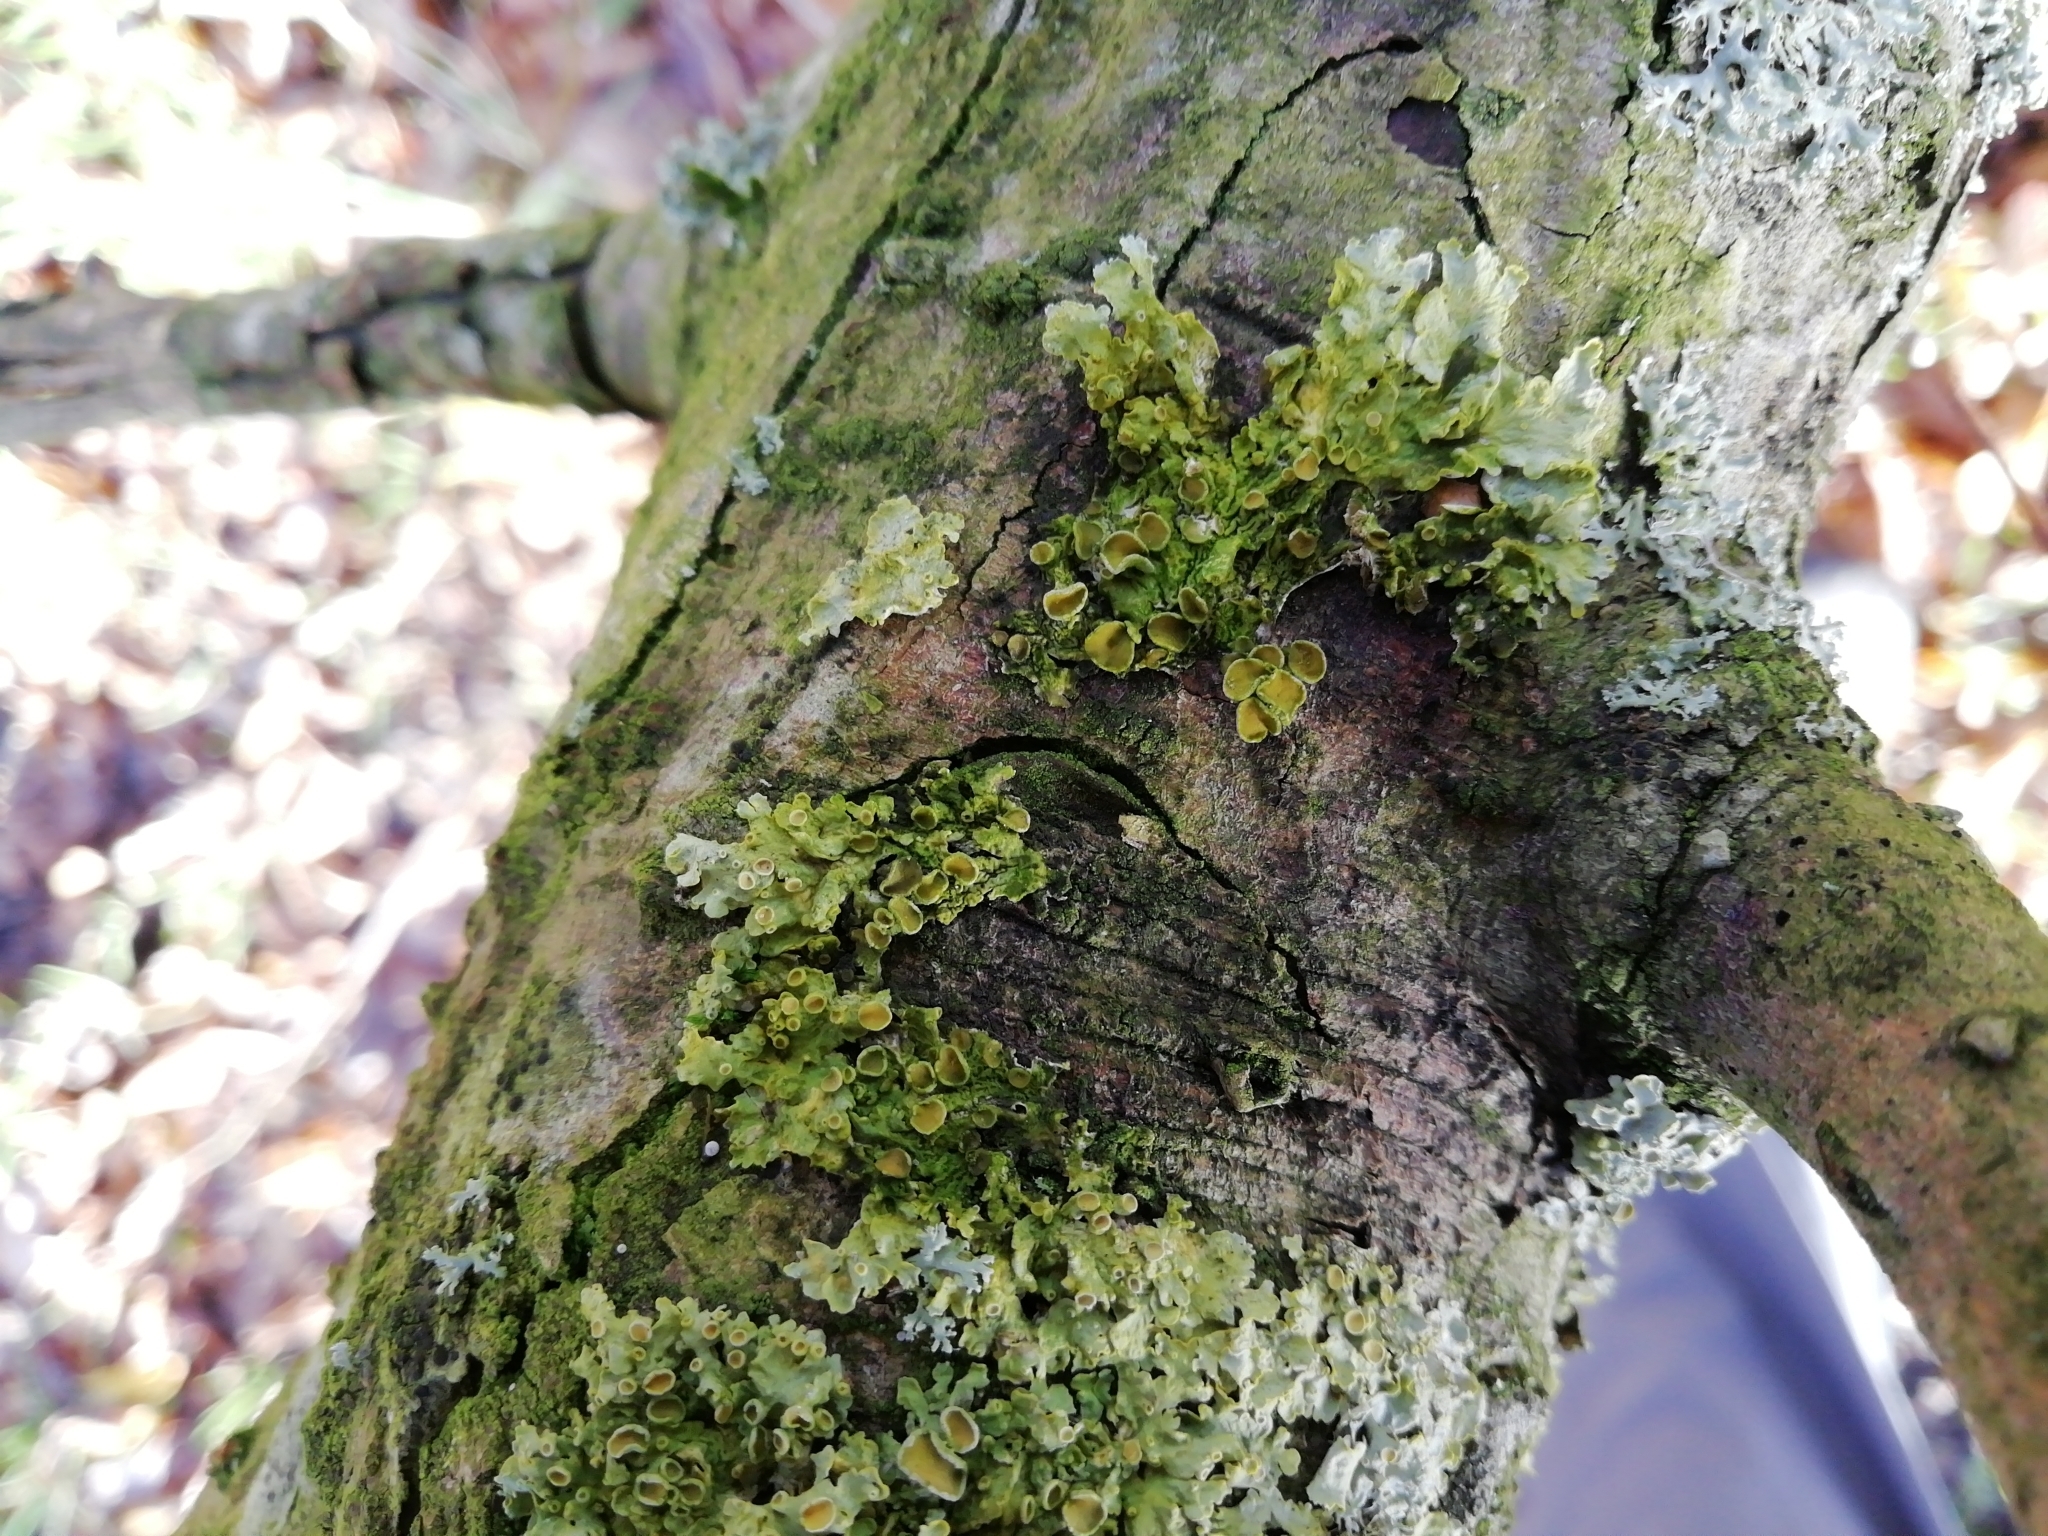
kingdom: Fungi
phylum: Ascomycota
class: Lecanoromycetes
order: Teloschistales
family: Teloschistaceae
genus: Xanthoria
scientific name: Xanthoria parietina
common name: Common orange lichen
